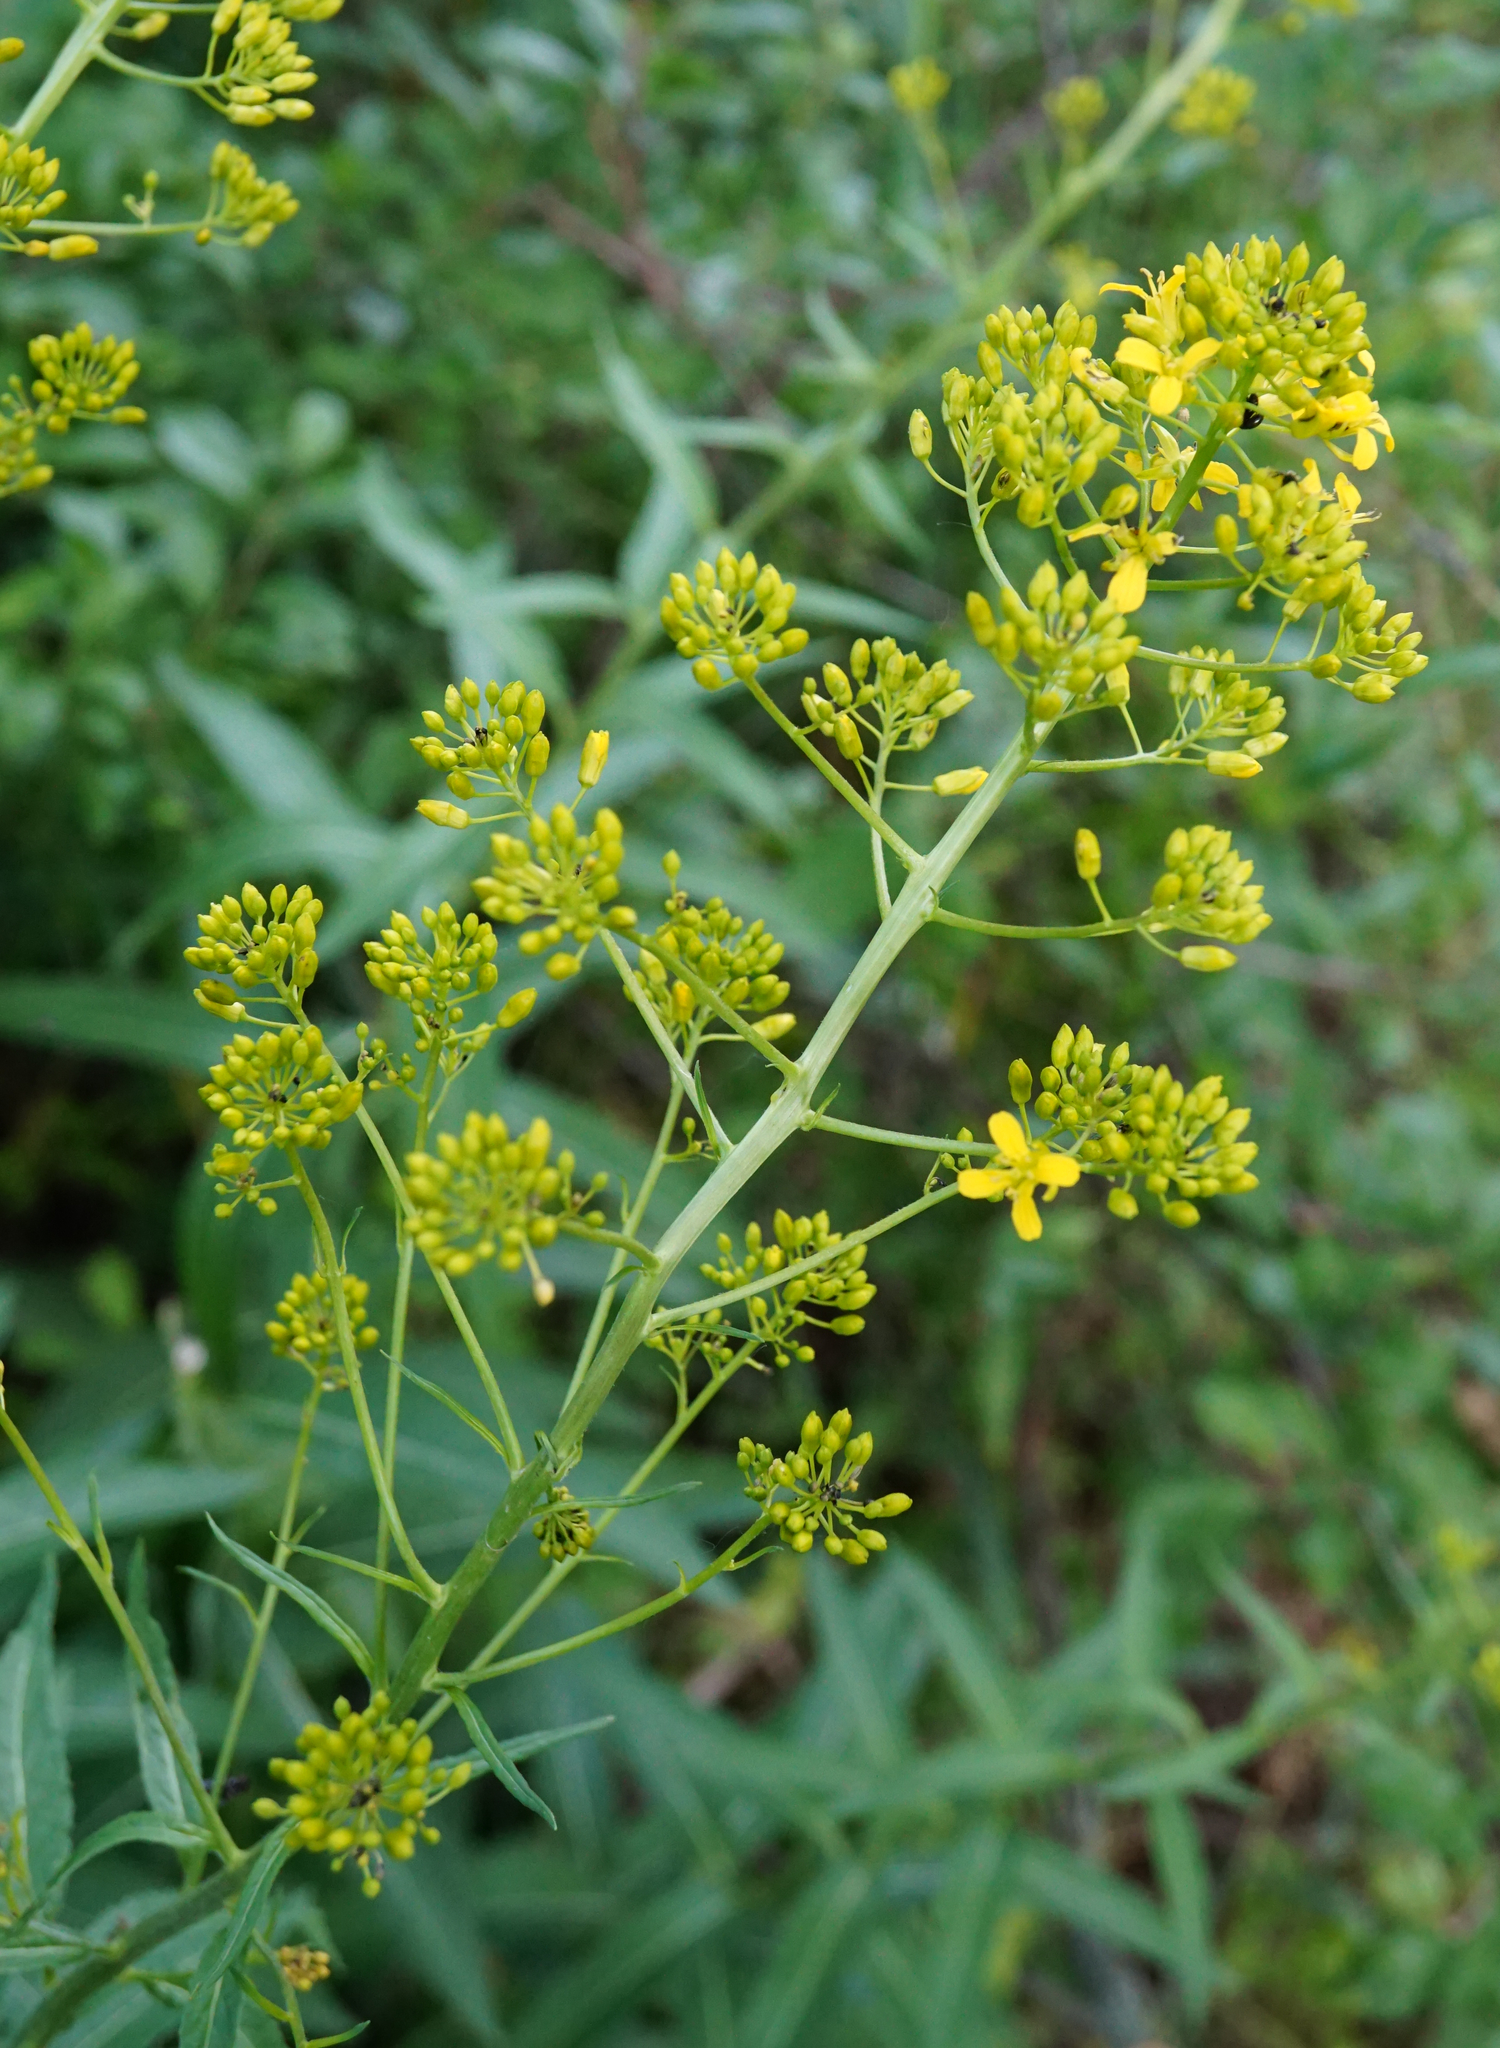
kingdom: Plantae
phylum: Tracheophyta
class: Magnoliopsida
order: Brassicales
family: Brassicaceae
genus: Sisymbrium
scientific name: Sisymbrium strictissimum
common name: Perennial rocket
